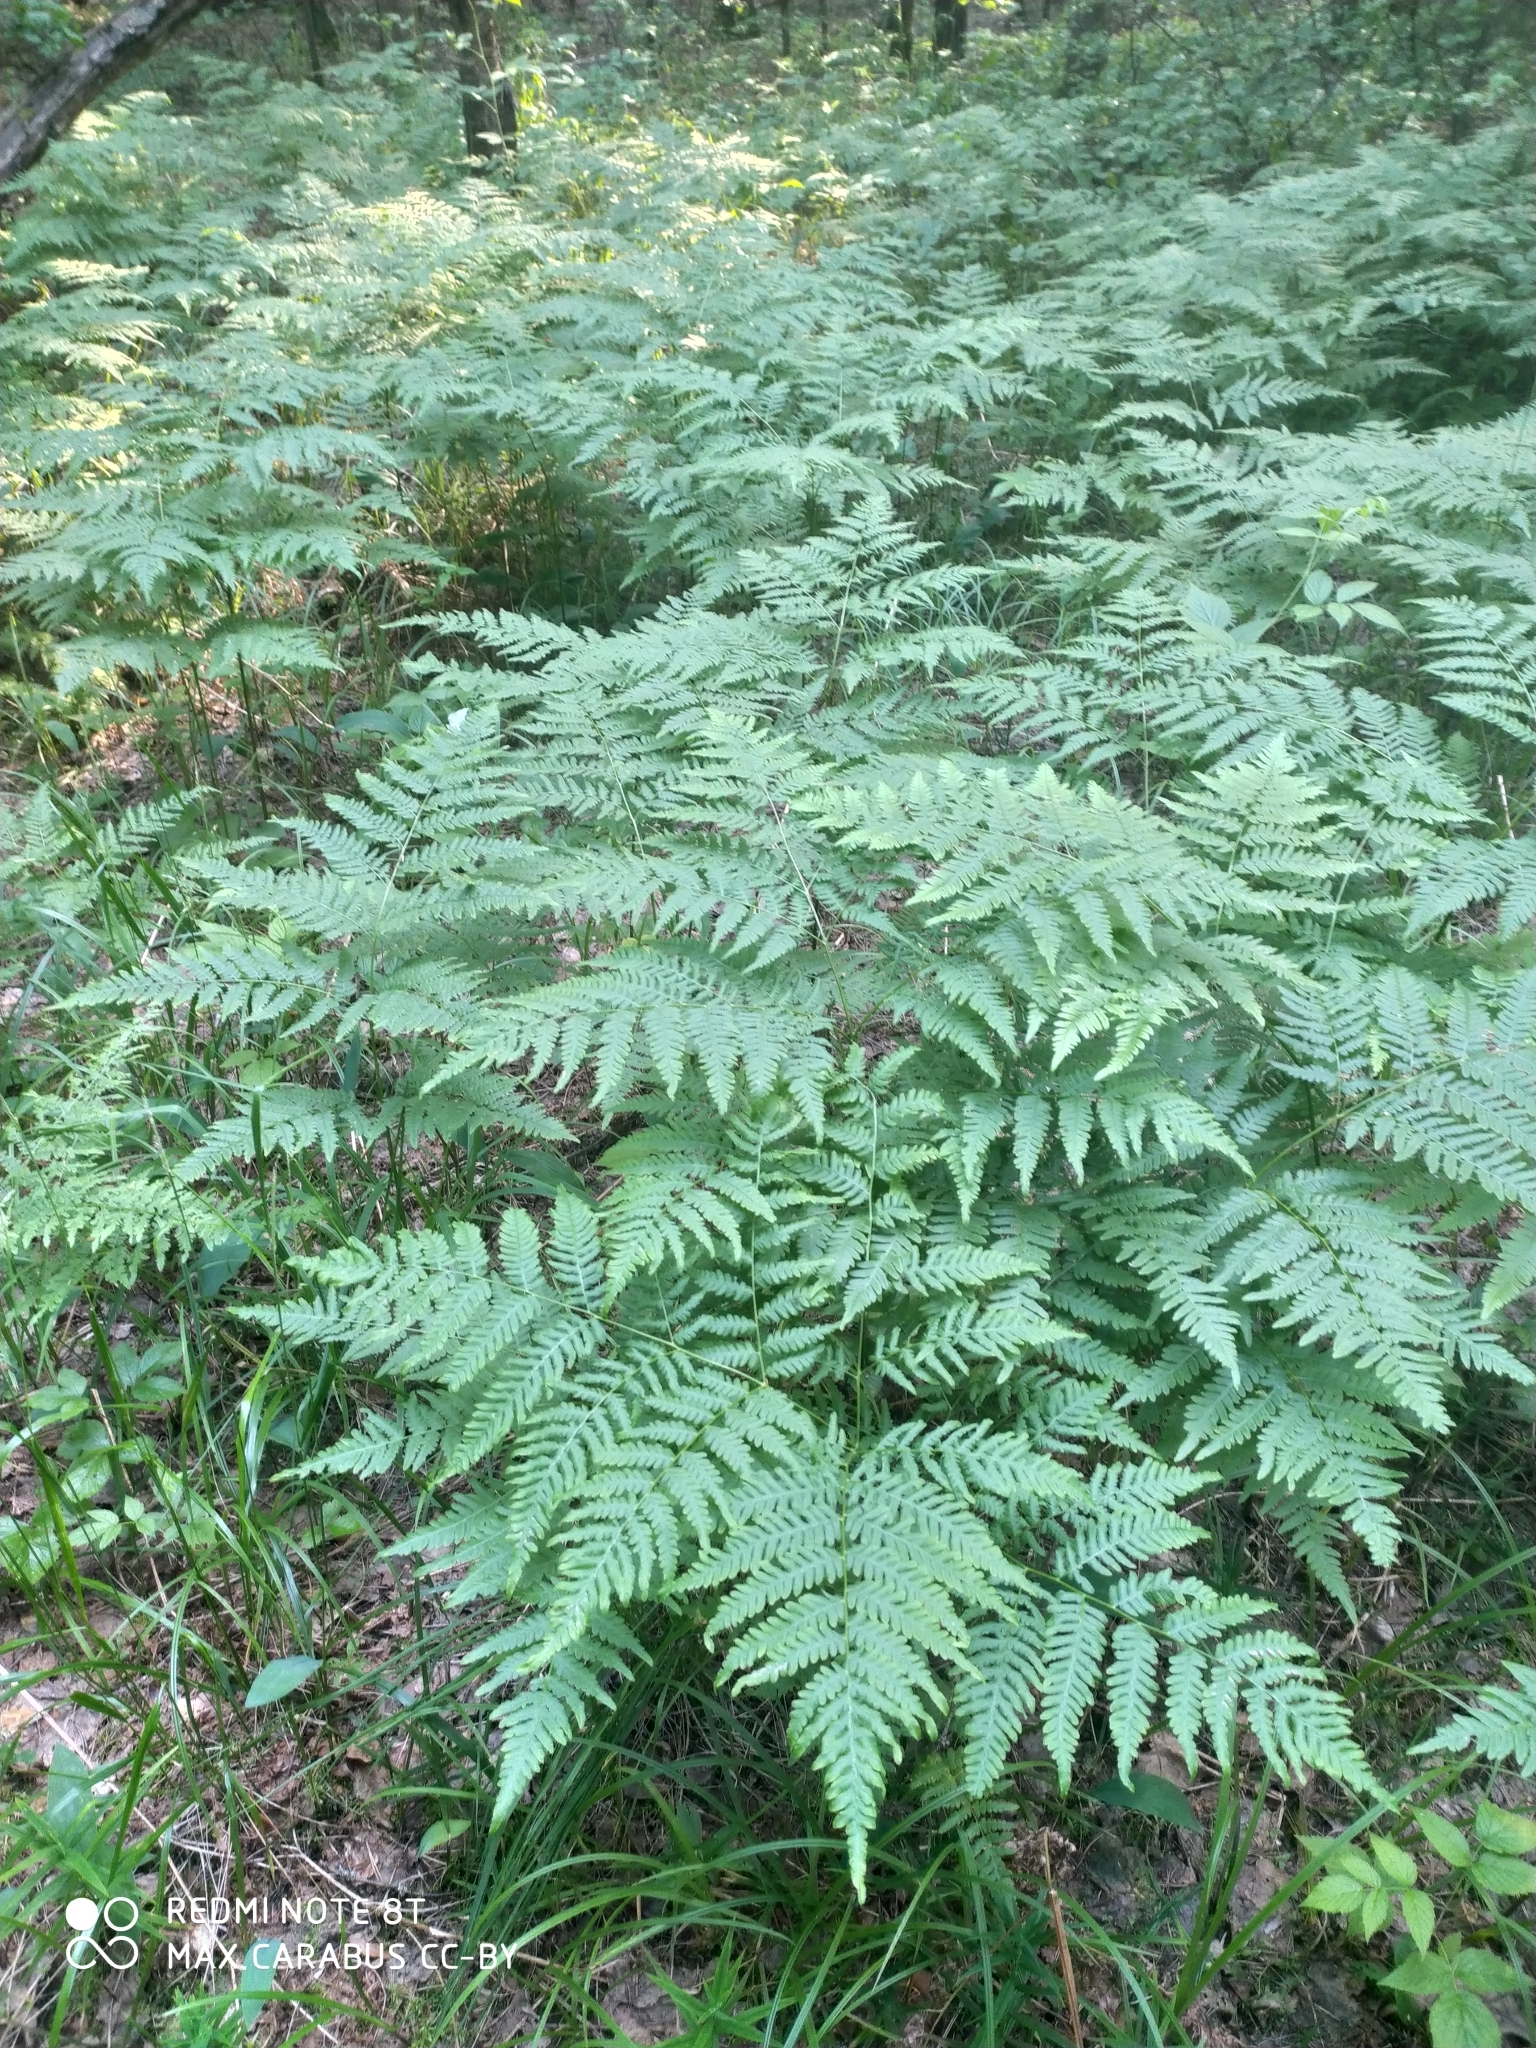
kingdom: Plantae
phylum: Tracheophyta
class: Polypodiopsida
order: Polypodiales
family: Dennstaedtiaceae
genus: Pteridium
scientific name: Pteridium aquilinum
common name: Bracken
